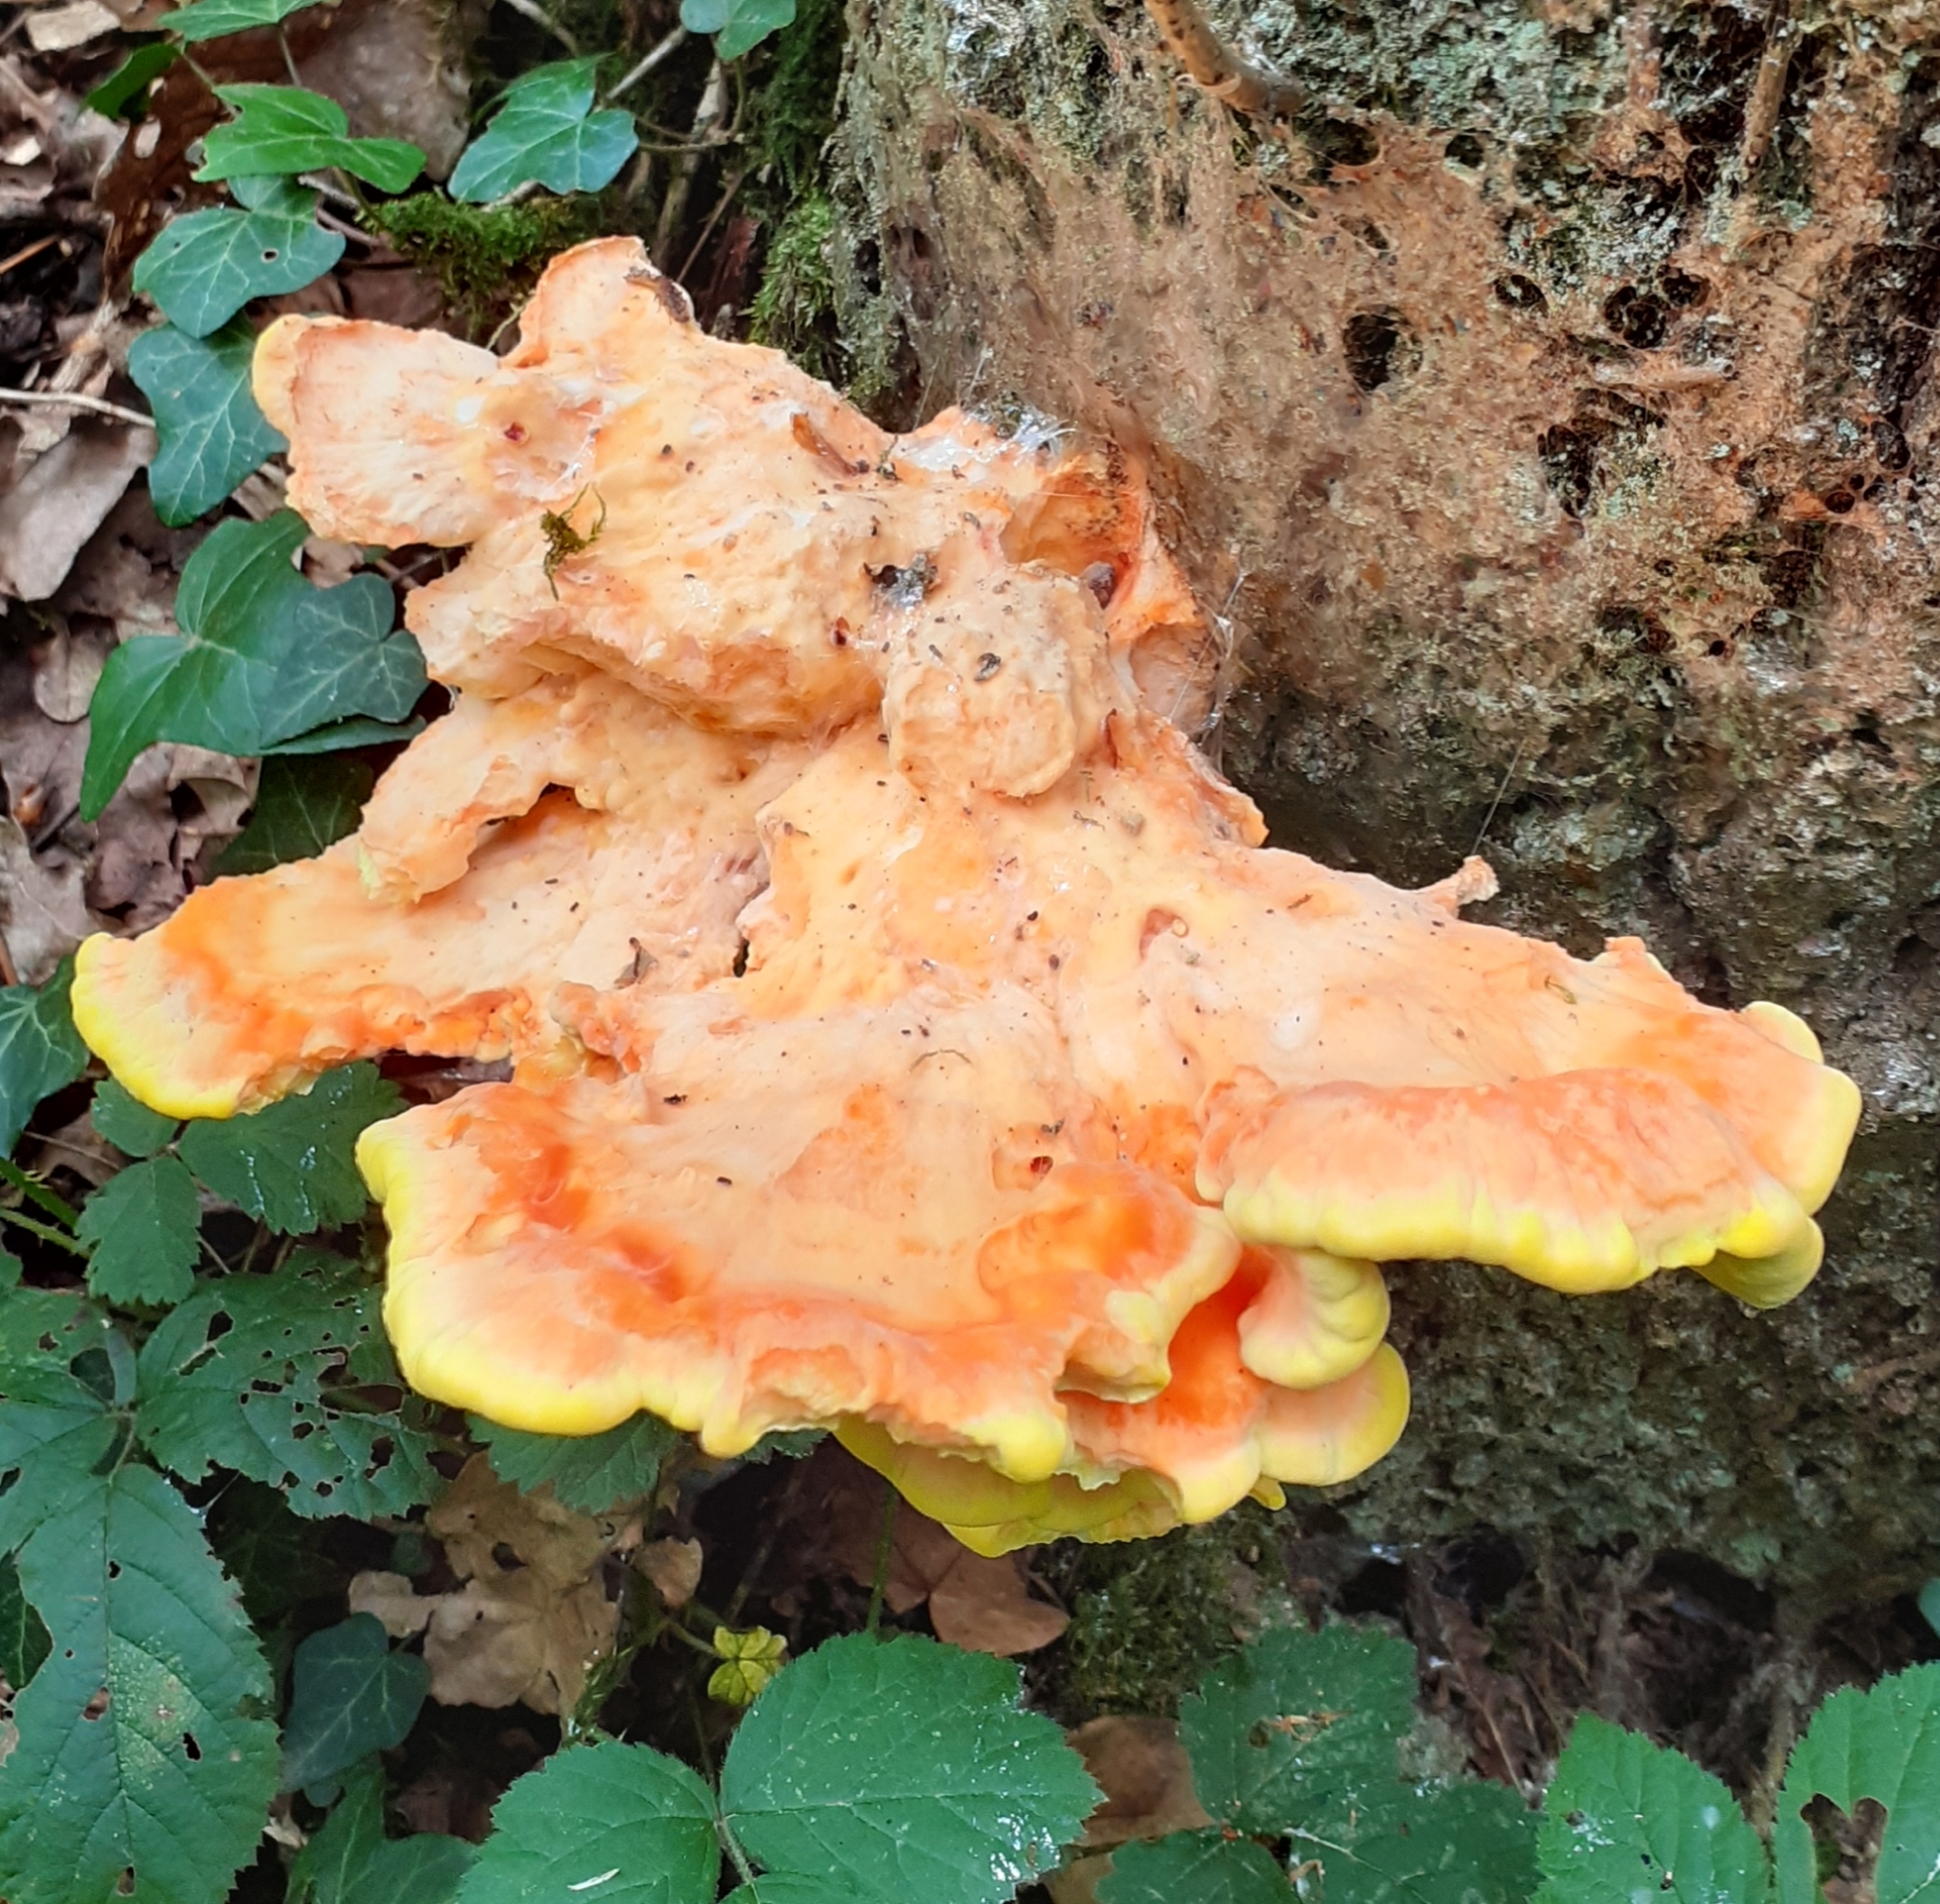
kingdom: Fungi
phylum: Basidiomycota
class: Agaricomycetes
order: Polyporales
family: Laetiporaceae
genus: Laetiporus
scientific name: Laetiporus sulphureus
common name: Chicken of the woods
